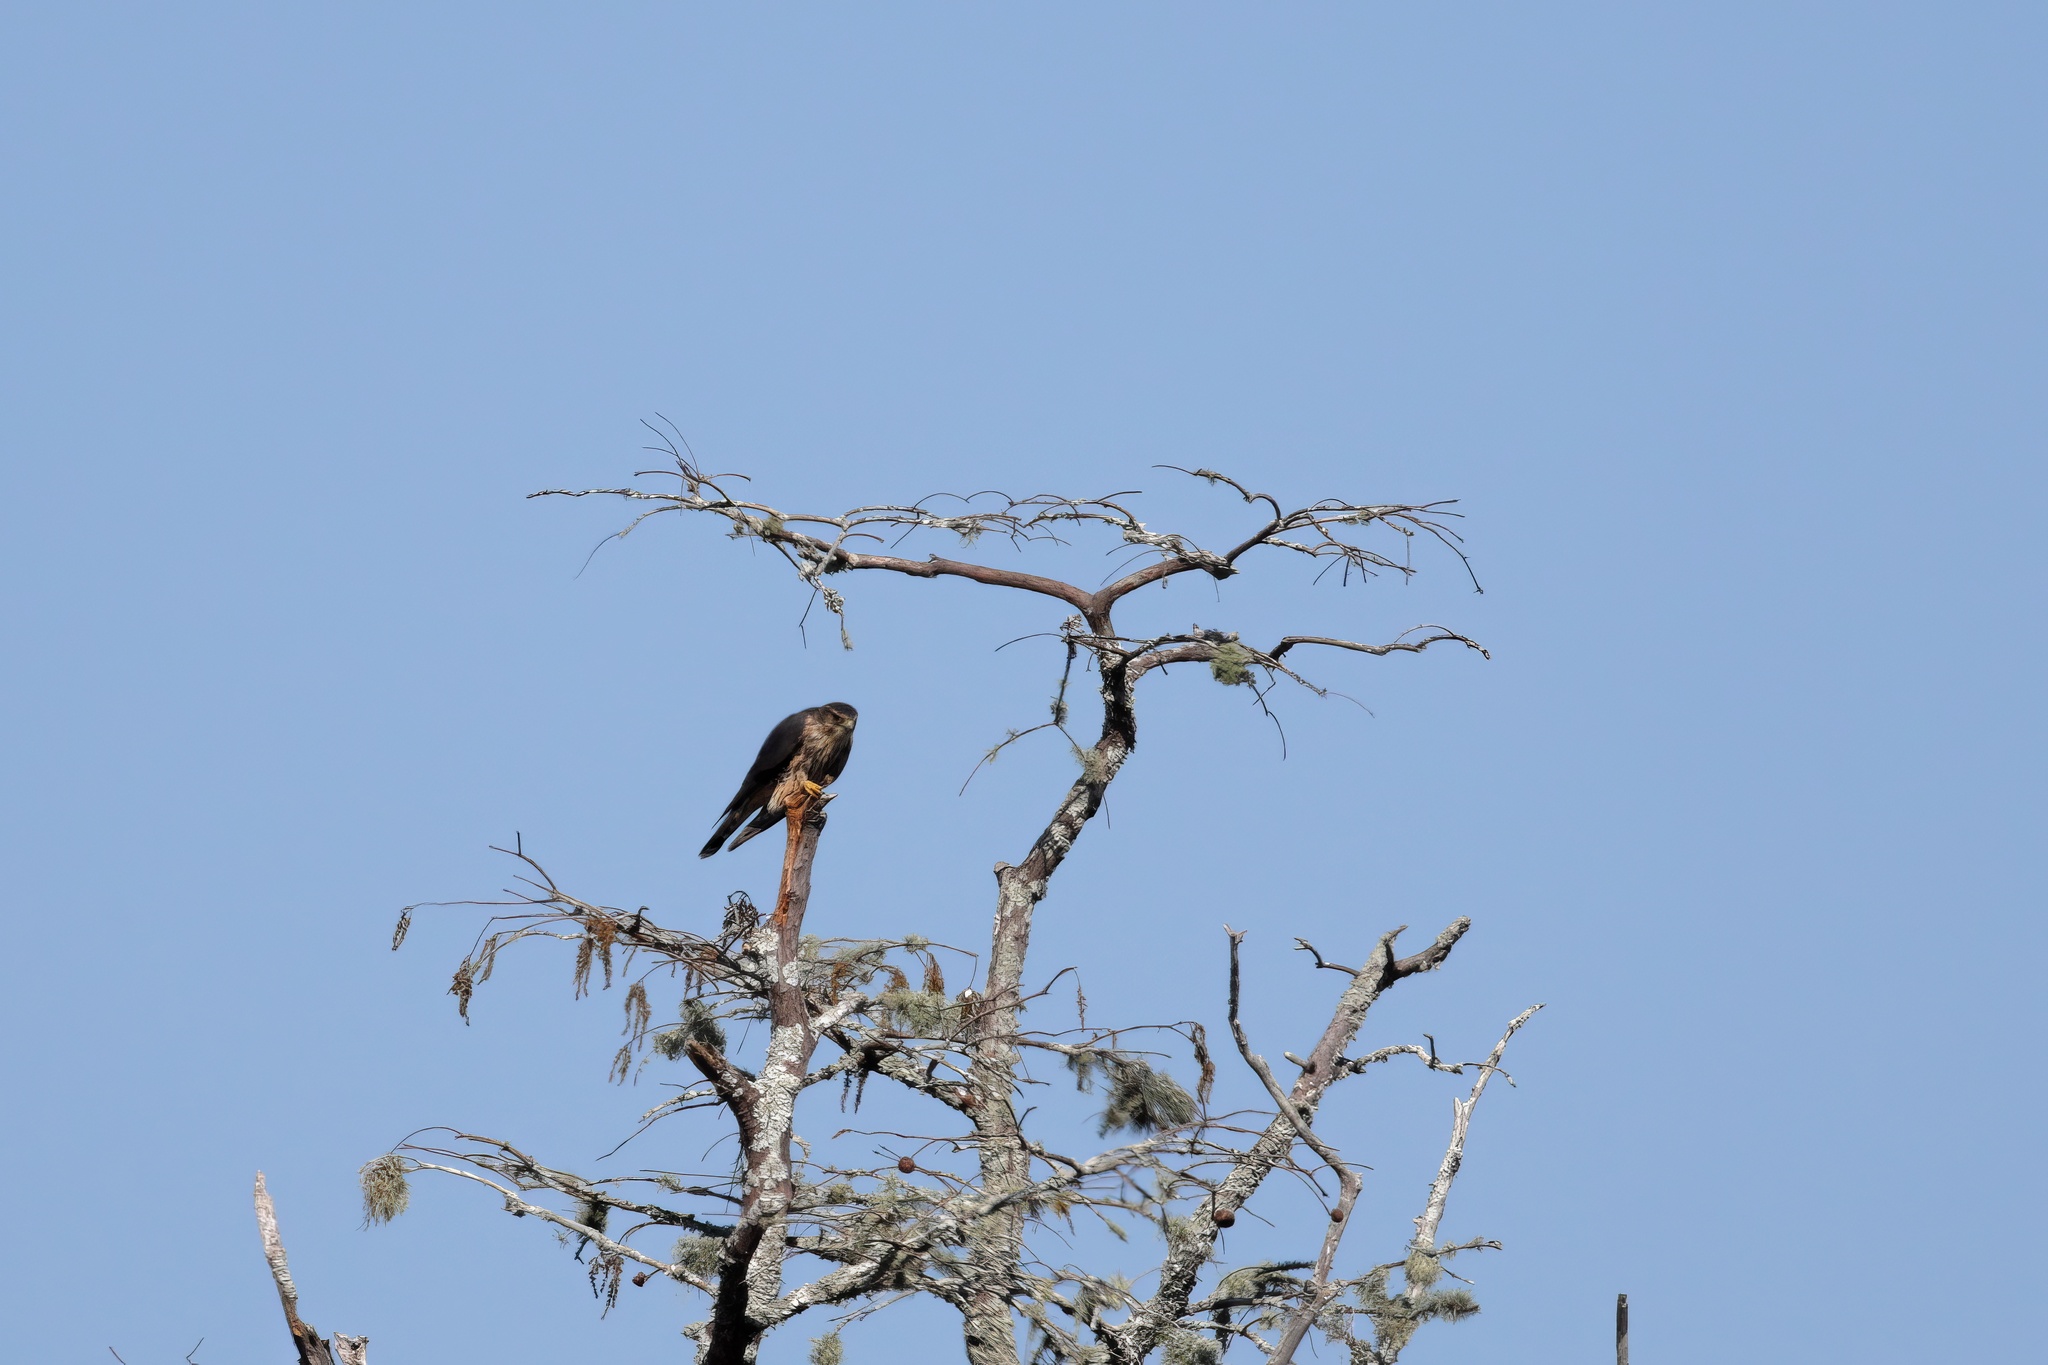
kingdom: Animalia
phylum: Chordata
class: Aves
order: Falconiformes
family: Falconidae
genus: Falco
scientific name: Falco columbarius
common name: Merlin
